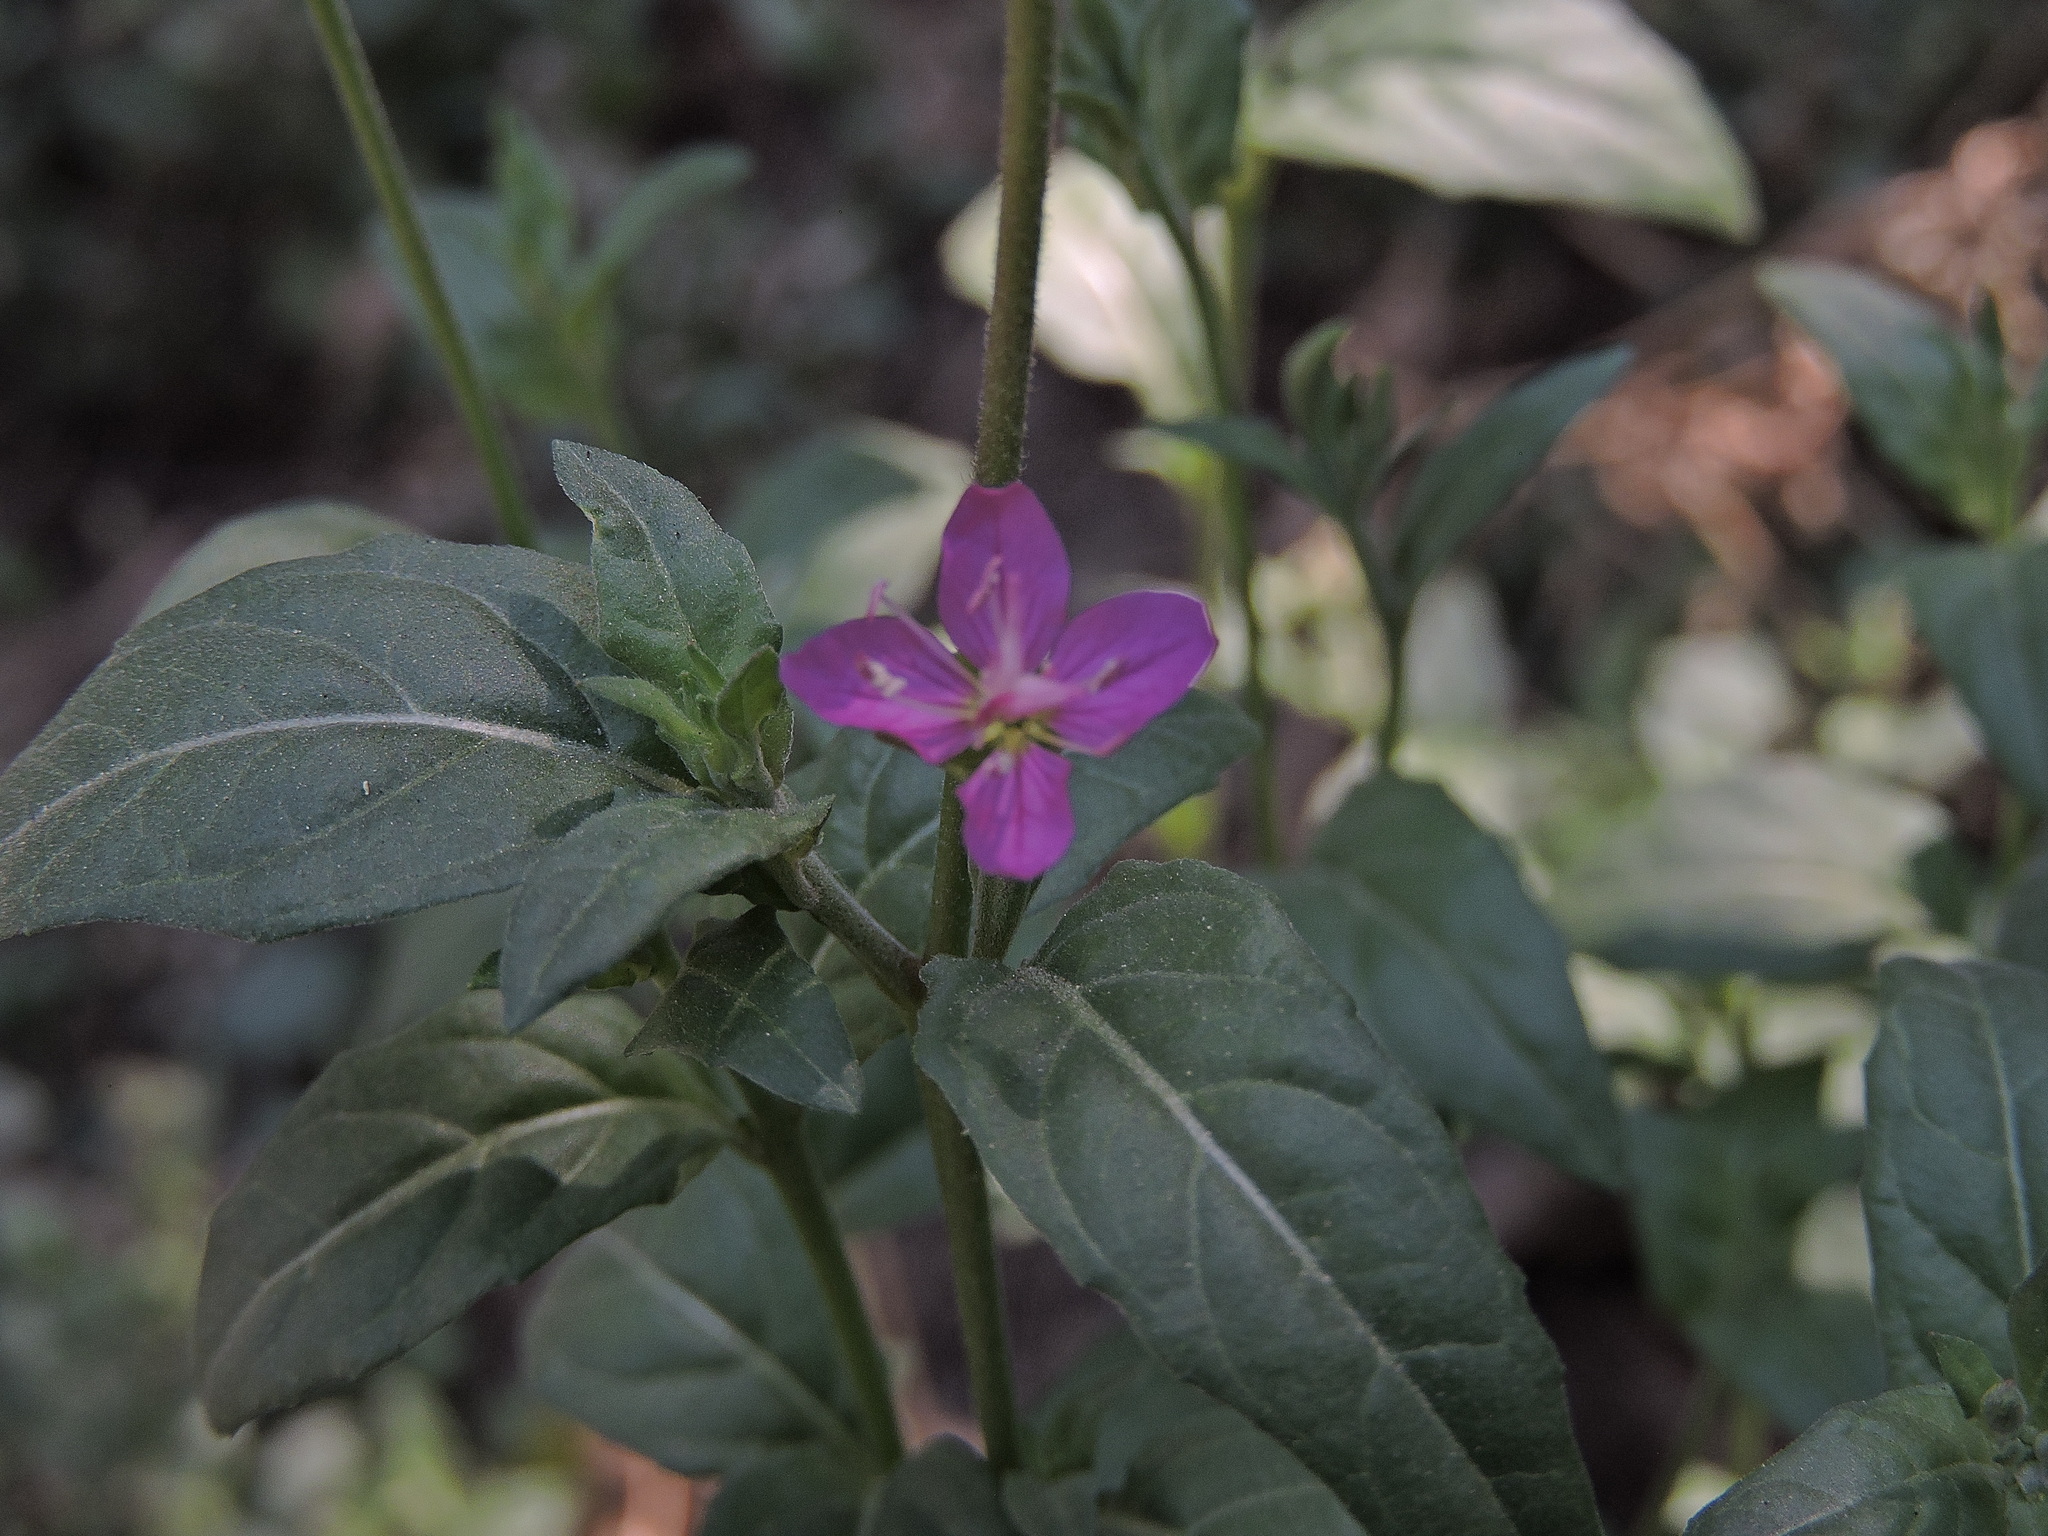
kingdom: Plantae
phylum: Tracheophyta
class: Magnoliopsida
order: Myrtales
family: Onagraceae
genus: Oenothera
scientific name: Oenothera rosea
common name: Rosy evening-primrose
